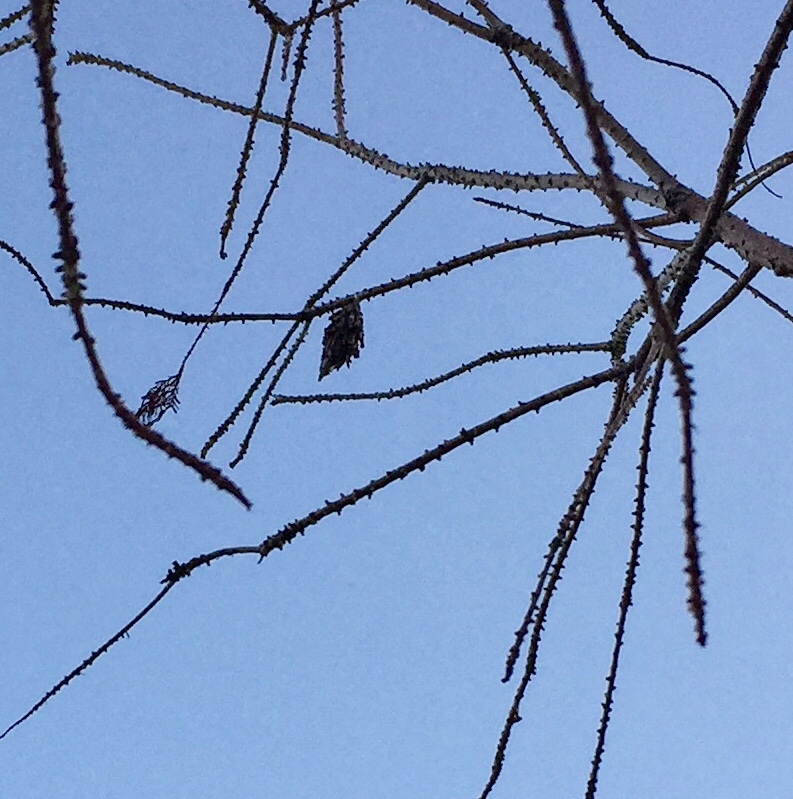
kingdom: Animalia
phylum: Arthropoda
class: Insecta
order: Lepidoptera
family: Psychidae
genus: Thyridopteryx
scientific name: Thyridopteryx ephemeraeformis
